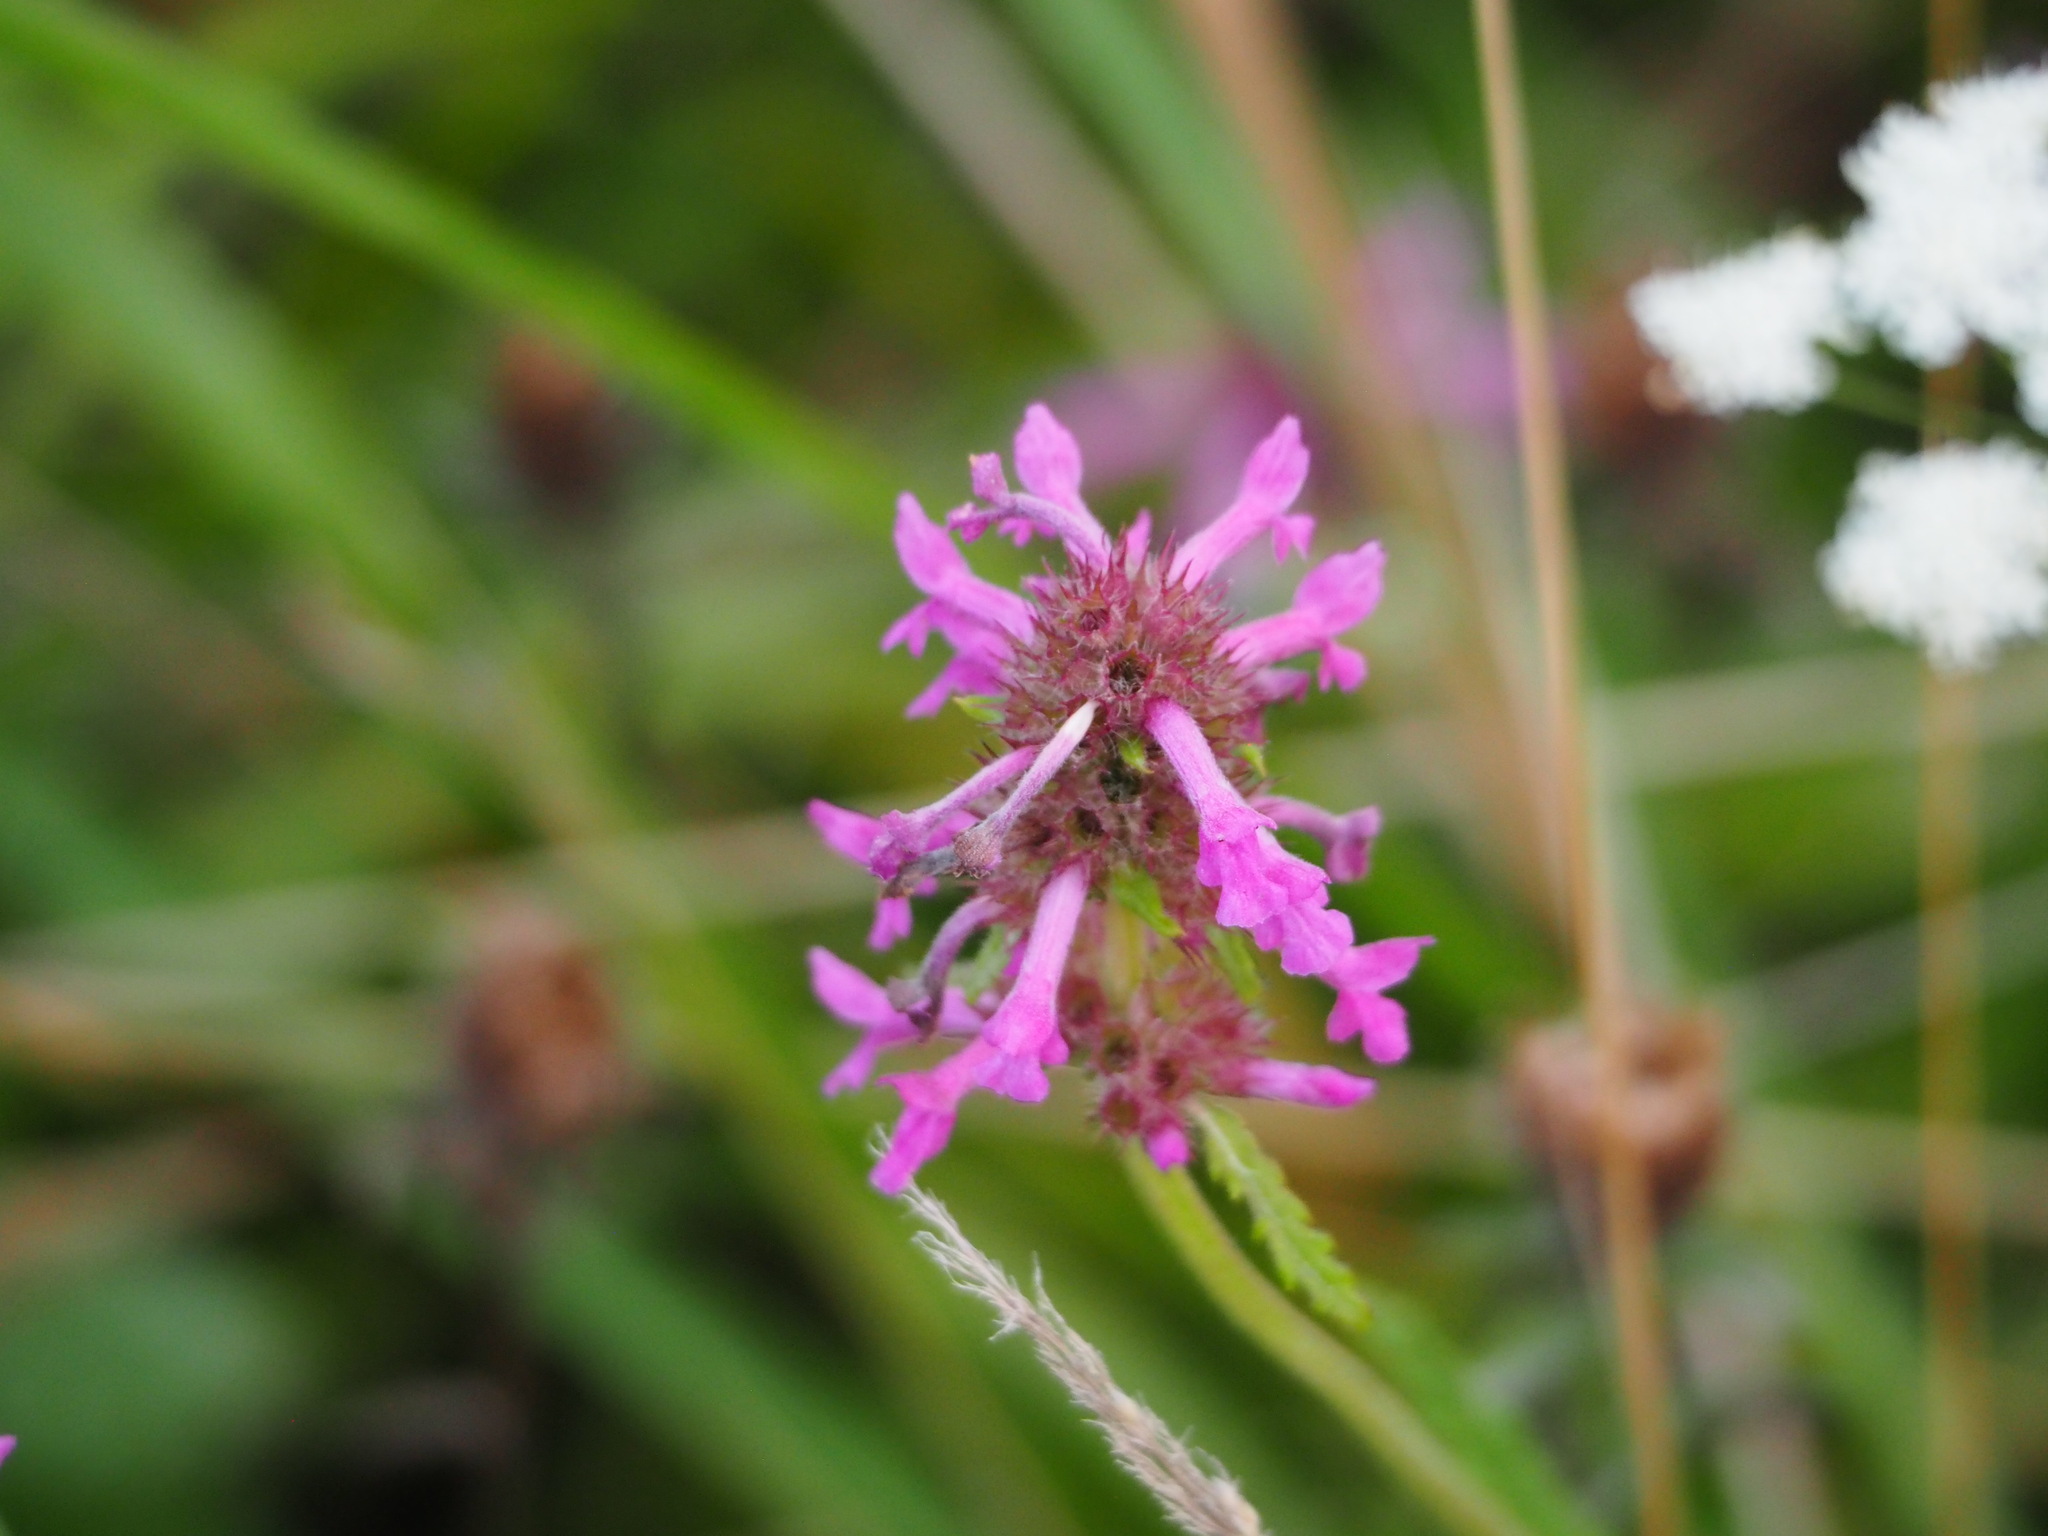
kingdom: Plantae
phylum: Tracheophyta
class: Magnoliopsida
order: Lamiales
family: Lamiaceae
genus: Betonica
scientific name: Betonica officinalis
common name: Bishop's-wort
